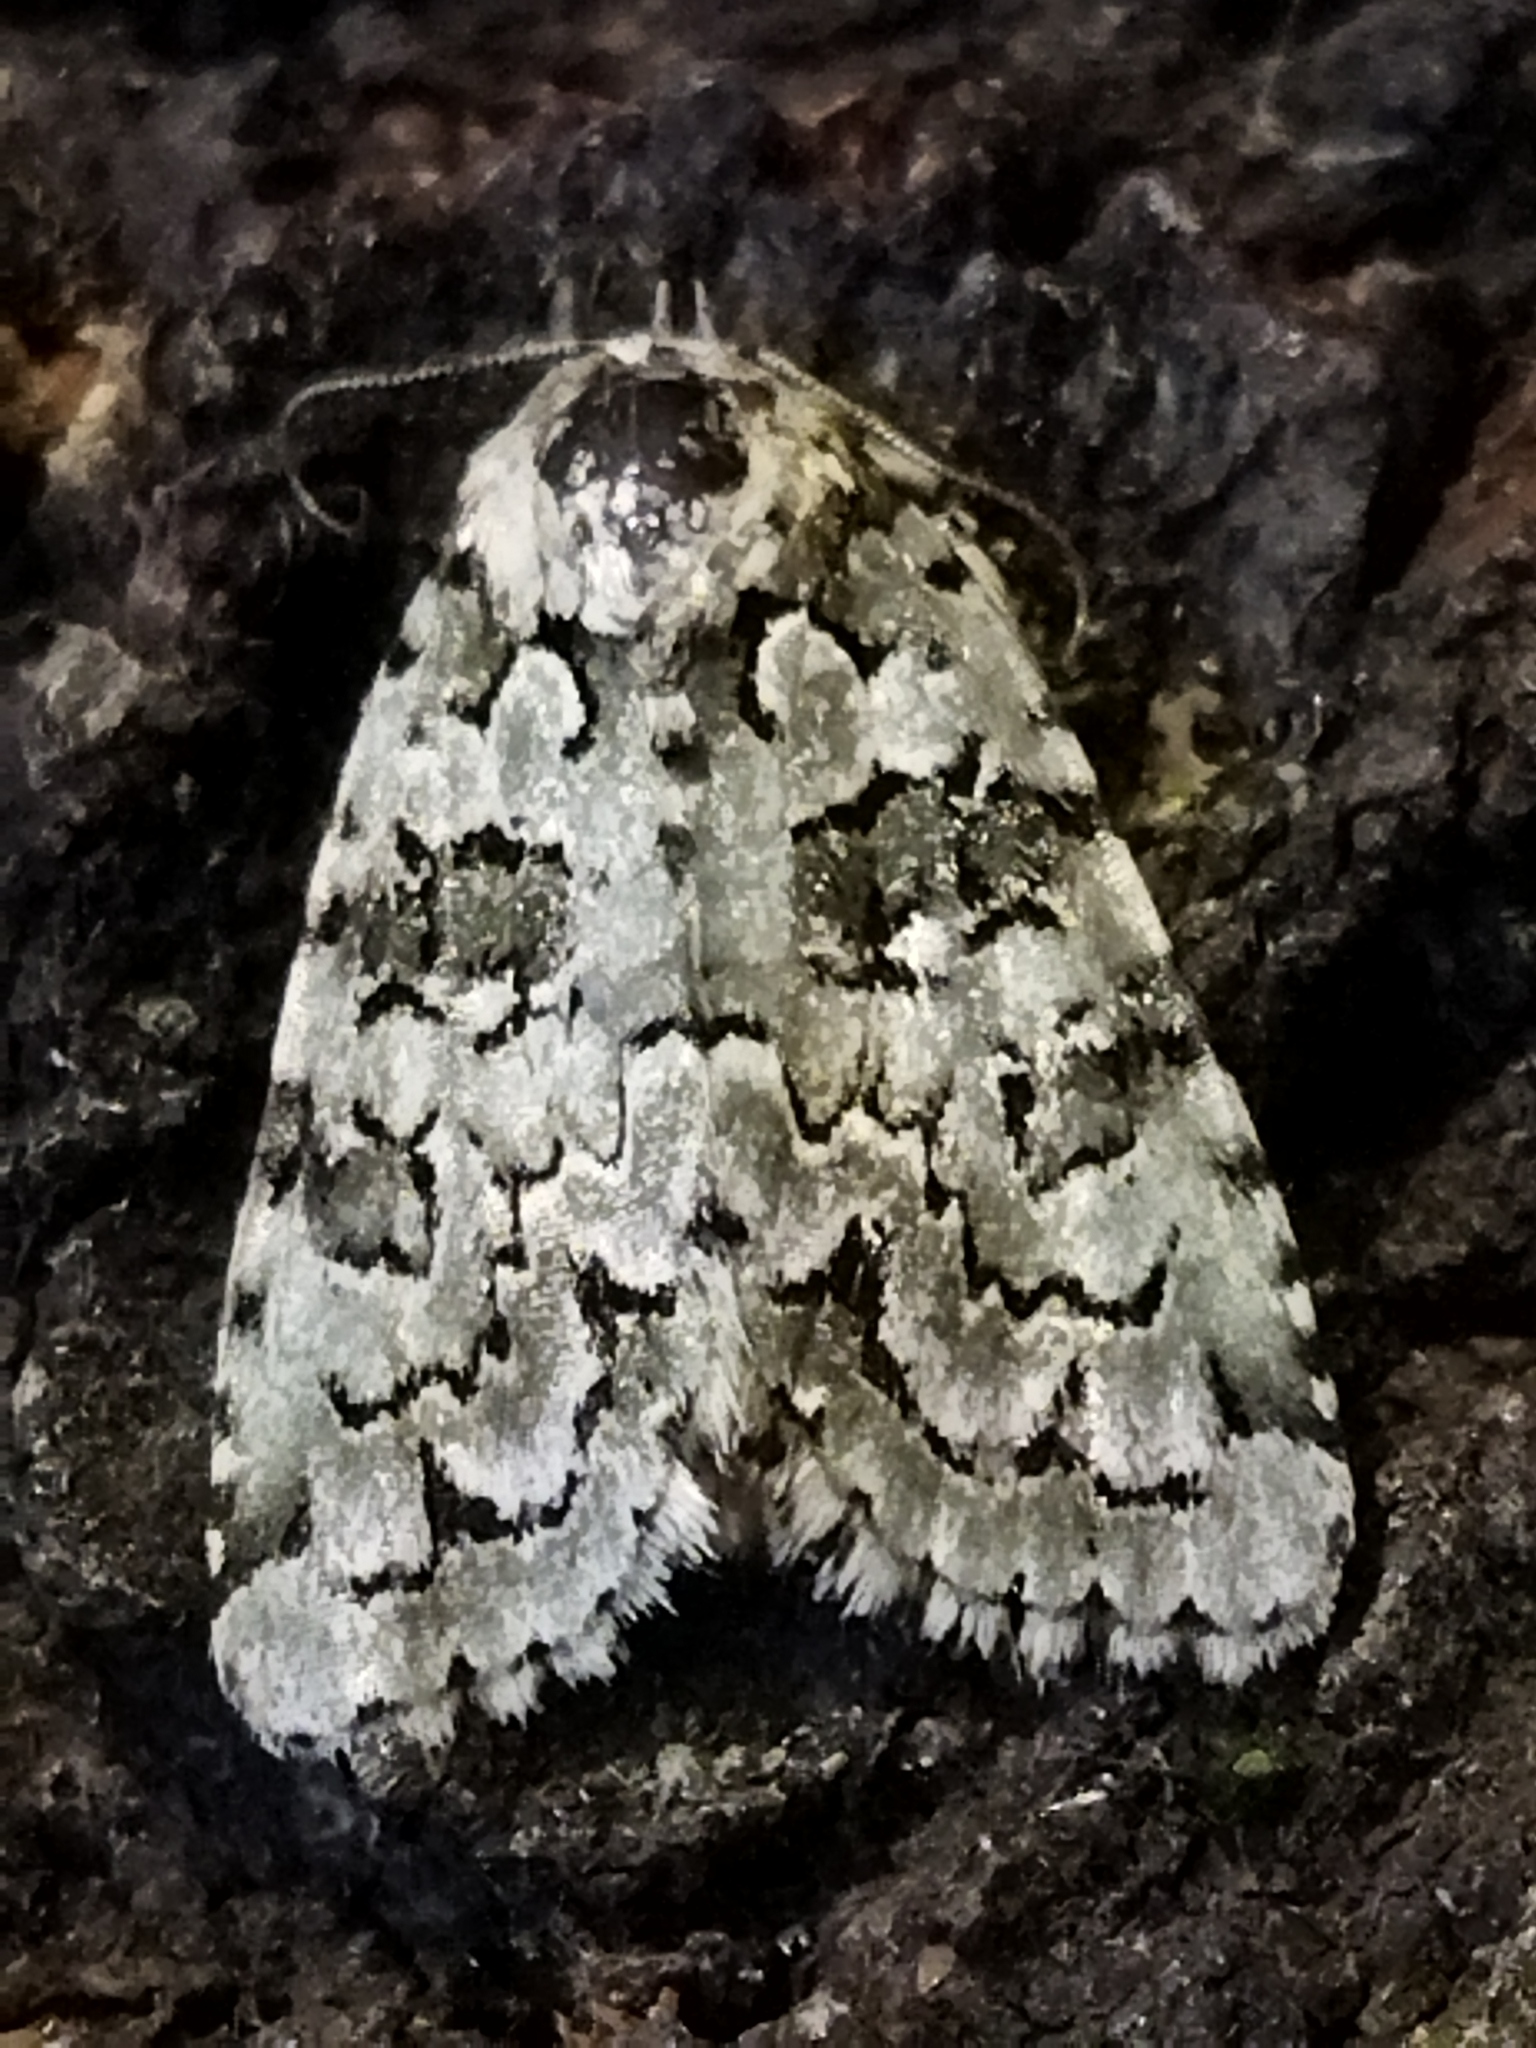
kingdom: Plantae
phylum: Chlorophyta
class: Ulvophyceae
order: Bryopsidales
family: Bryopsidaceae
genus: Bryopsis
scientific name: Bryopsis
